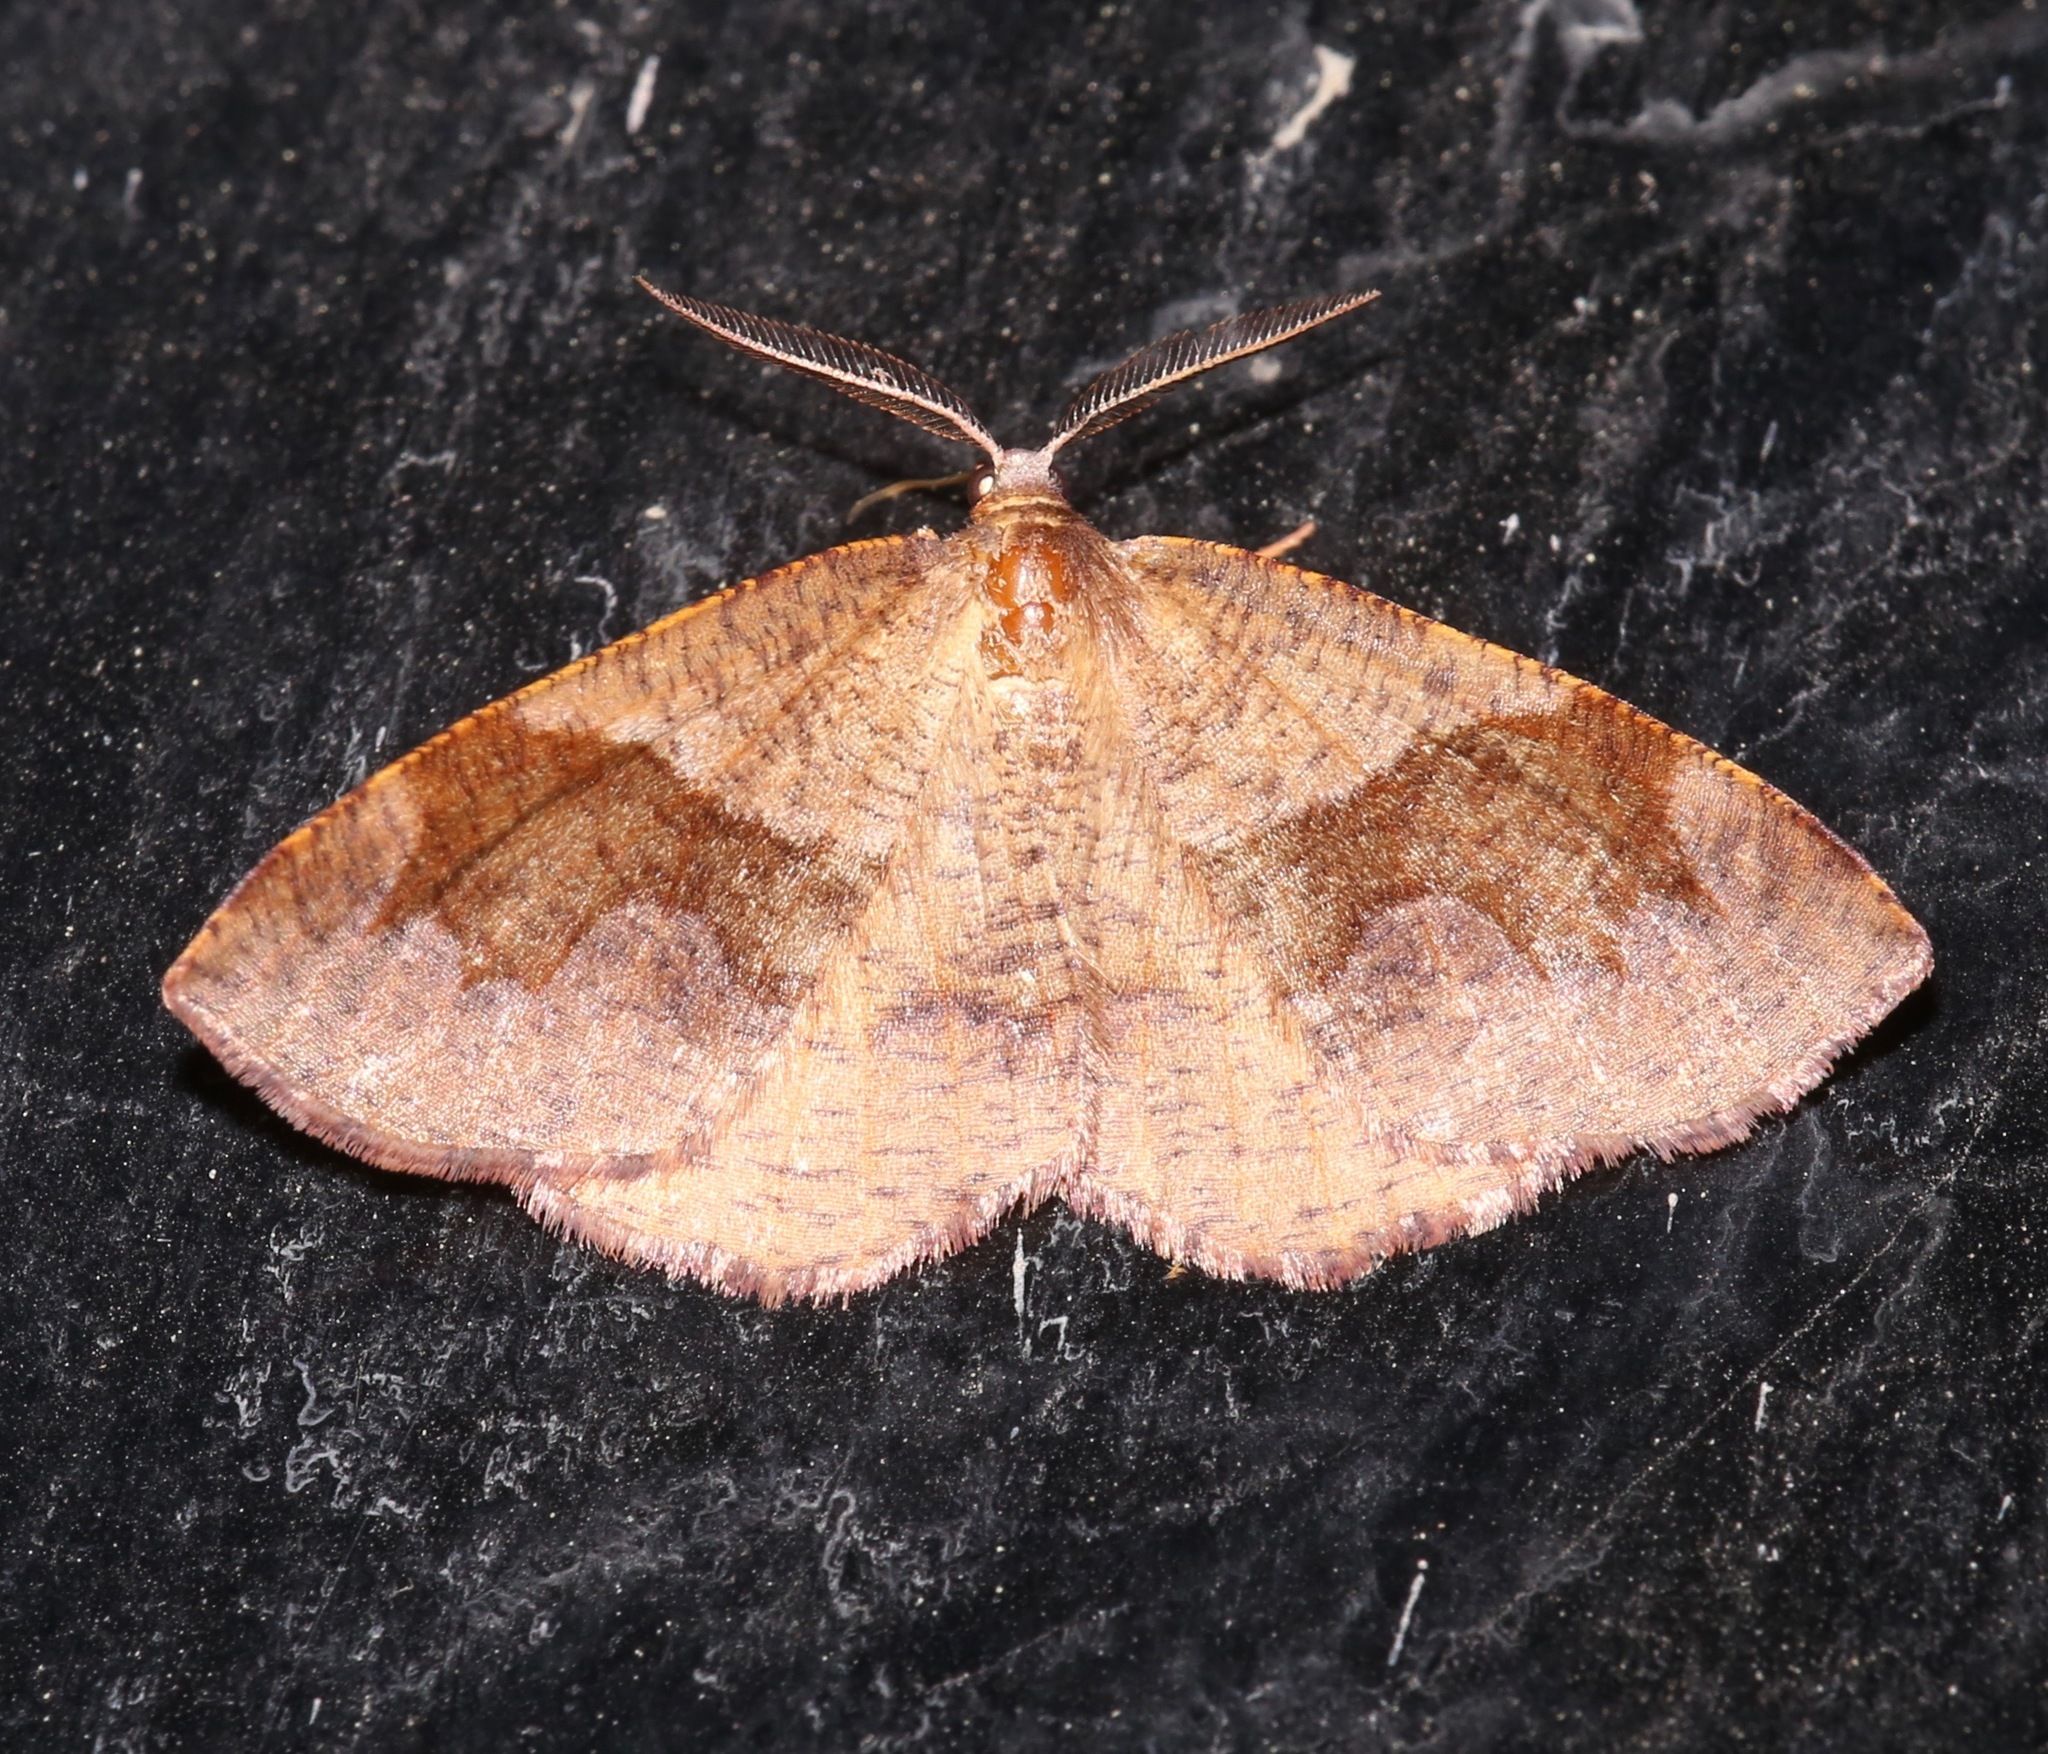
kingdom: Animalia
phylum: Arthropoda
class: Insecta
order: Lepidoptera
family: Geometridae
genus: Plagodis
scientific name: Plagodis pulveraria
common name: Barred umber
